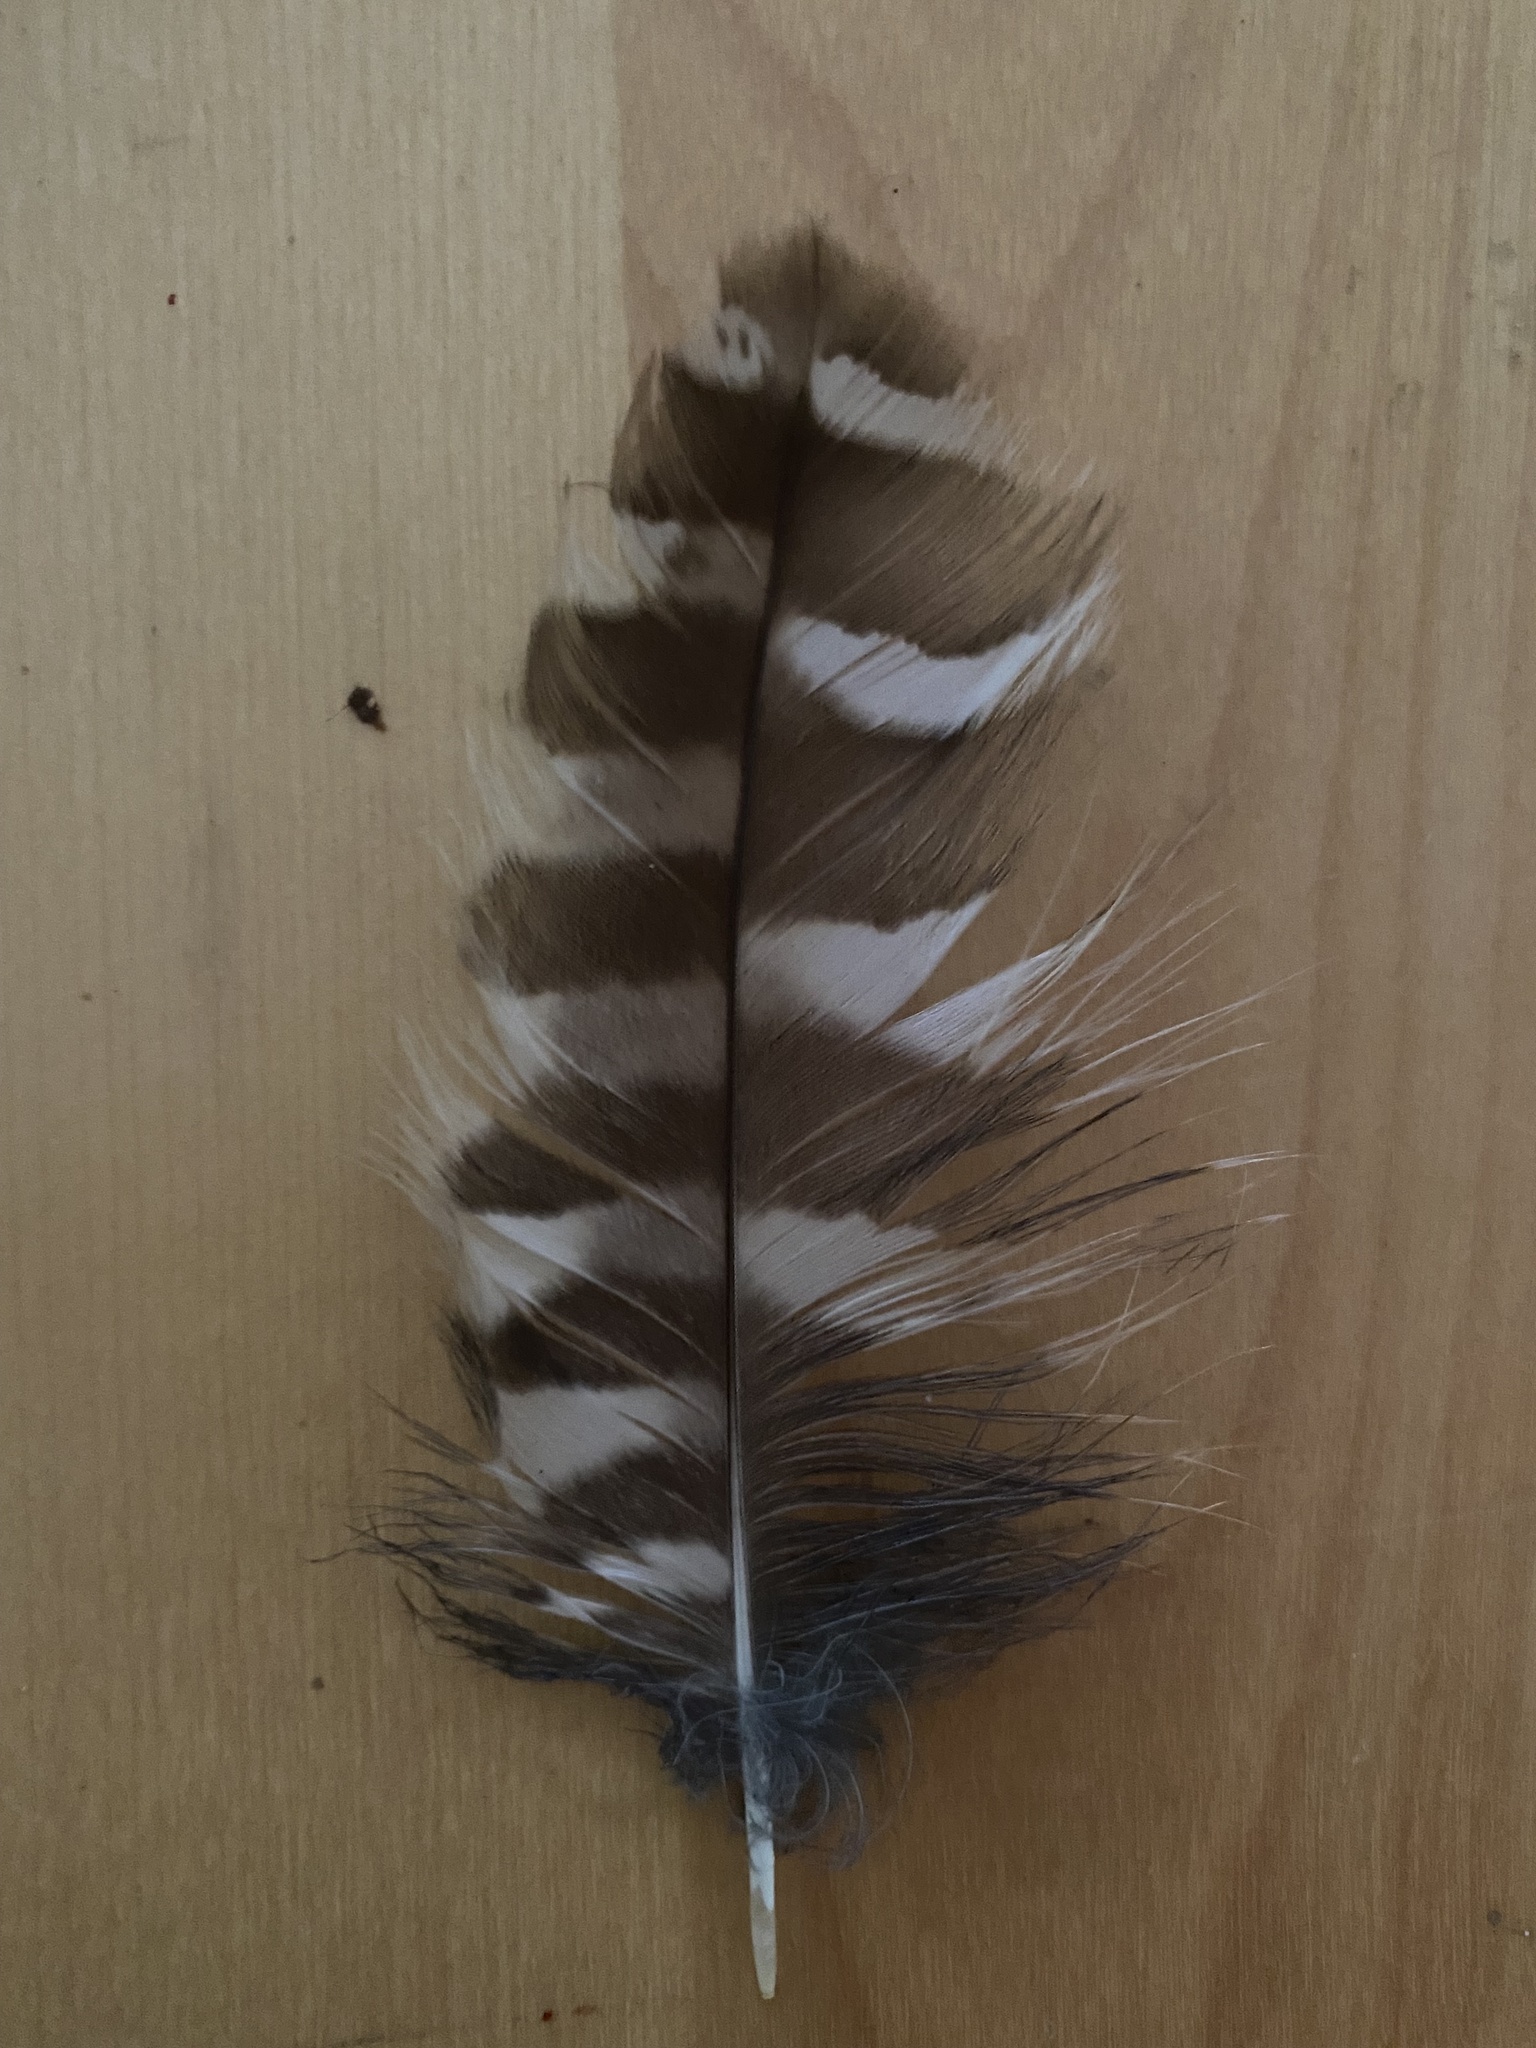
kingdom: Animalia
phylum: Chordata
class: Aves
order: Strigiformes
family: Strigidae
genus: Strix
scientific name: Strix varia
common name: Barred owl
